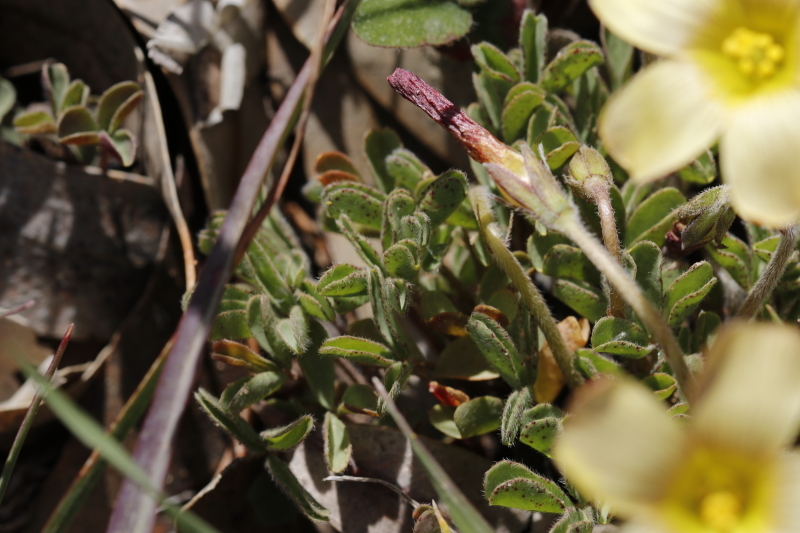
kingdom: Plantae
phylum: Tracheophyta
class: Magnoliopsida
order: Oxalidales
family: Oxalidaceae
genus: Oxalis
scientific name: Oxalis obtusa
